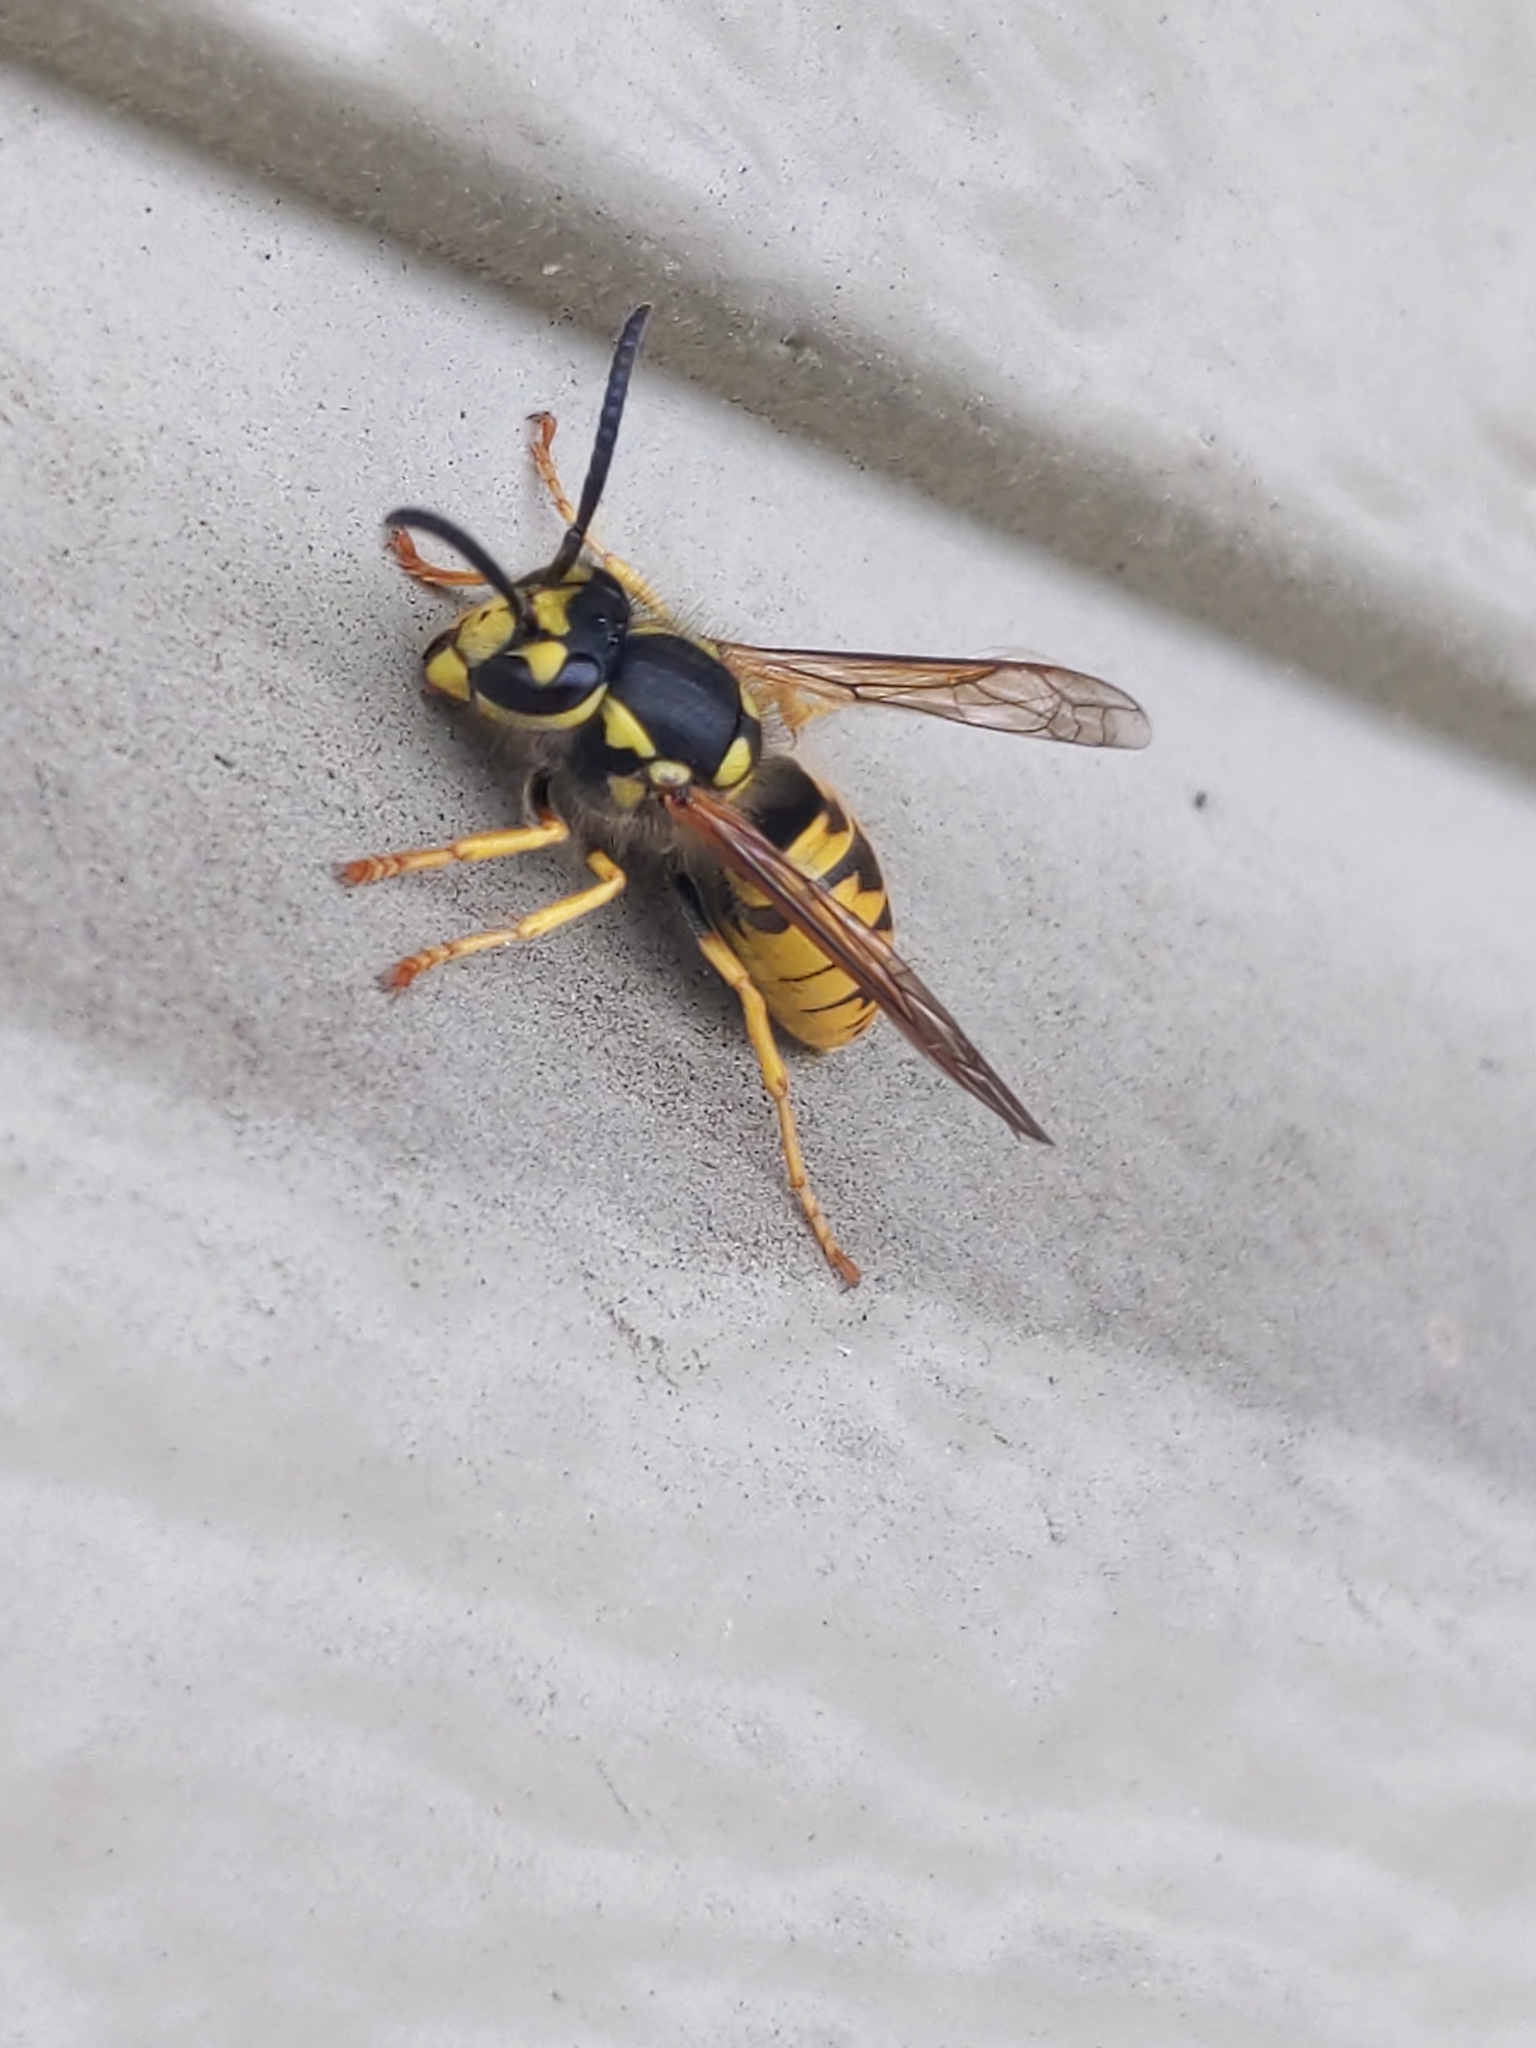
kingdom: Animalia
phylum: Arthropoda
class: Insecta
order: Hymenoptera
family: Vespidae
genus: Vespula
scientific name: Vespula germanica
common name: German wasp
